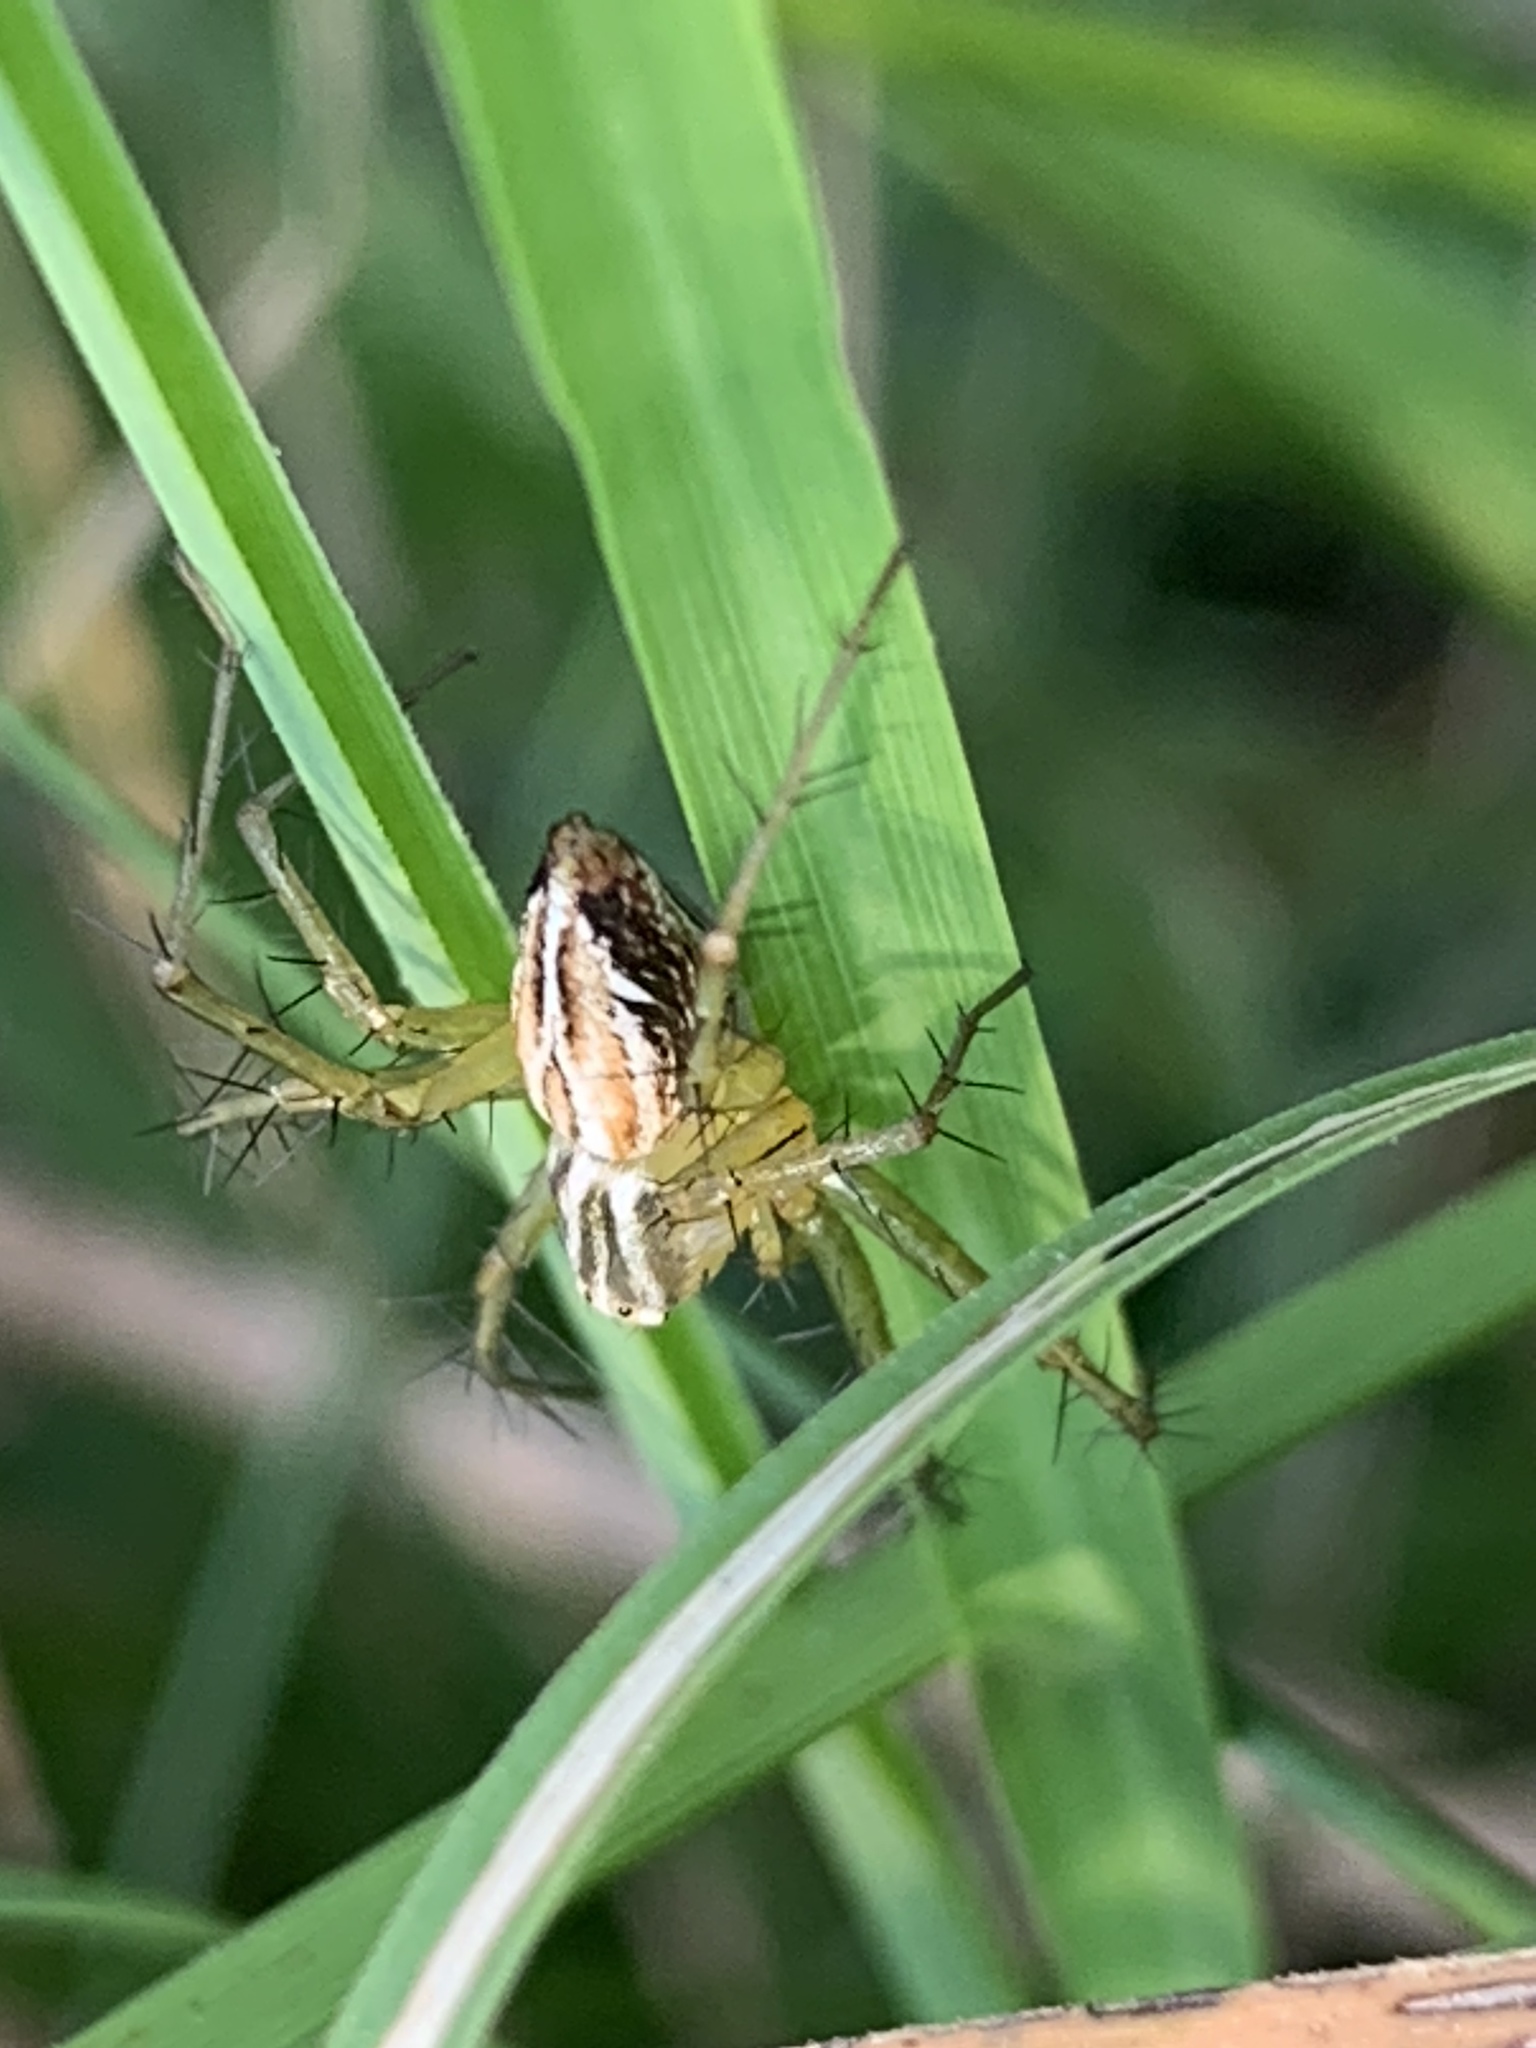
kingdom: Animalia
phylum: Arthropoda
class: Arachnida
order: Araneae
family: Oxyopidae
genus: Oxyopes
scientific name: Oxyopes salticus
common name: Lynx spiders
